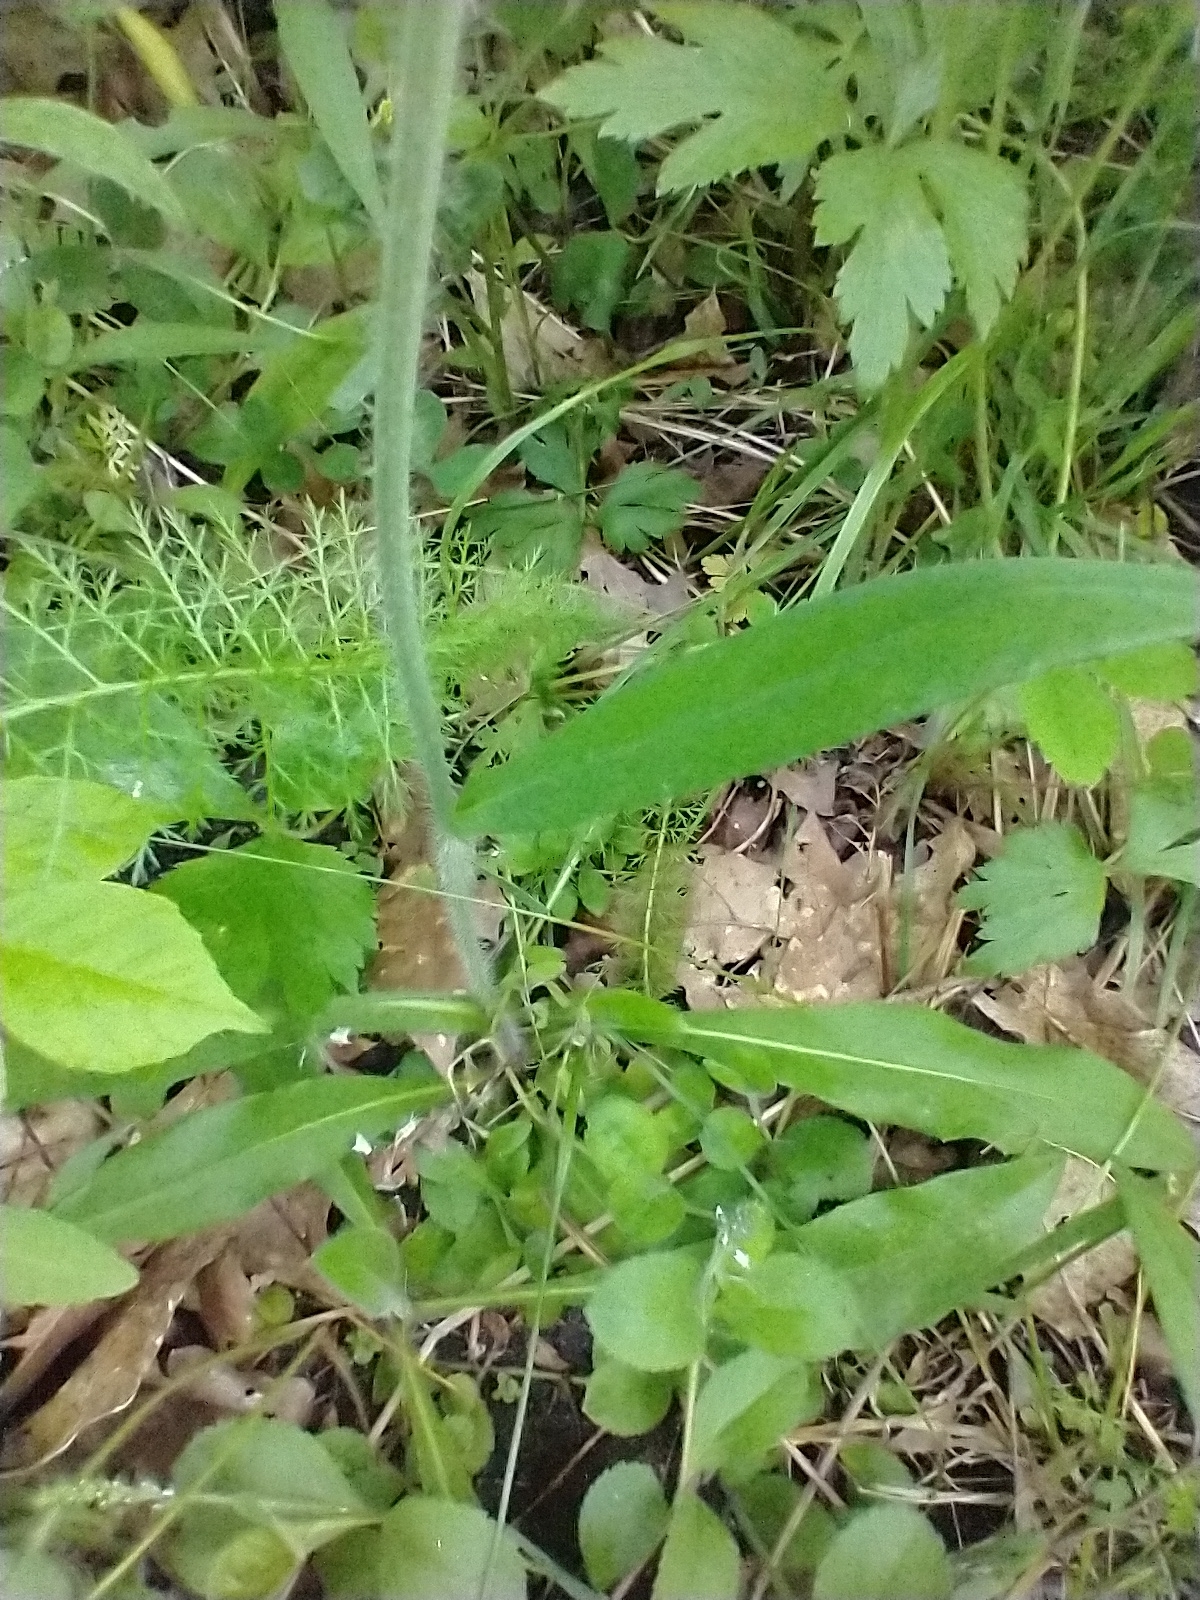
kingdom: Plantae
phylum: Tracheophyta
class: Magnoliopsida
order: Asterales
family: Asteraceae
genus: Pilosella
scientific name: Pilosella caespitosa
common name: Yellow fox-and-cubs
